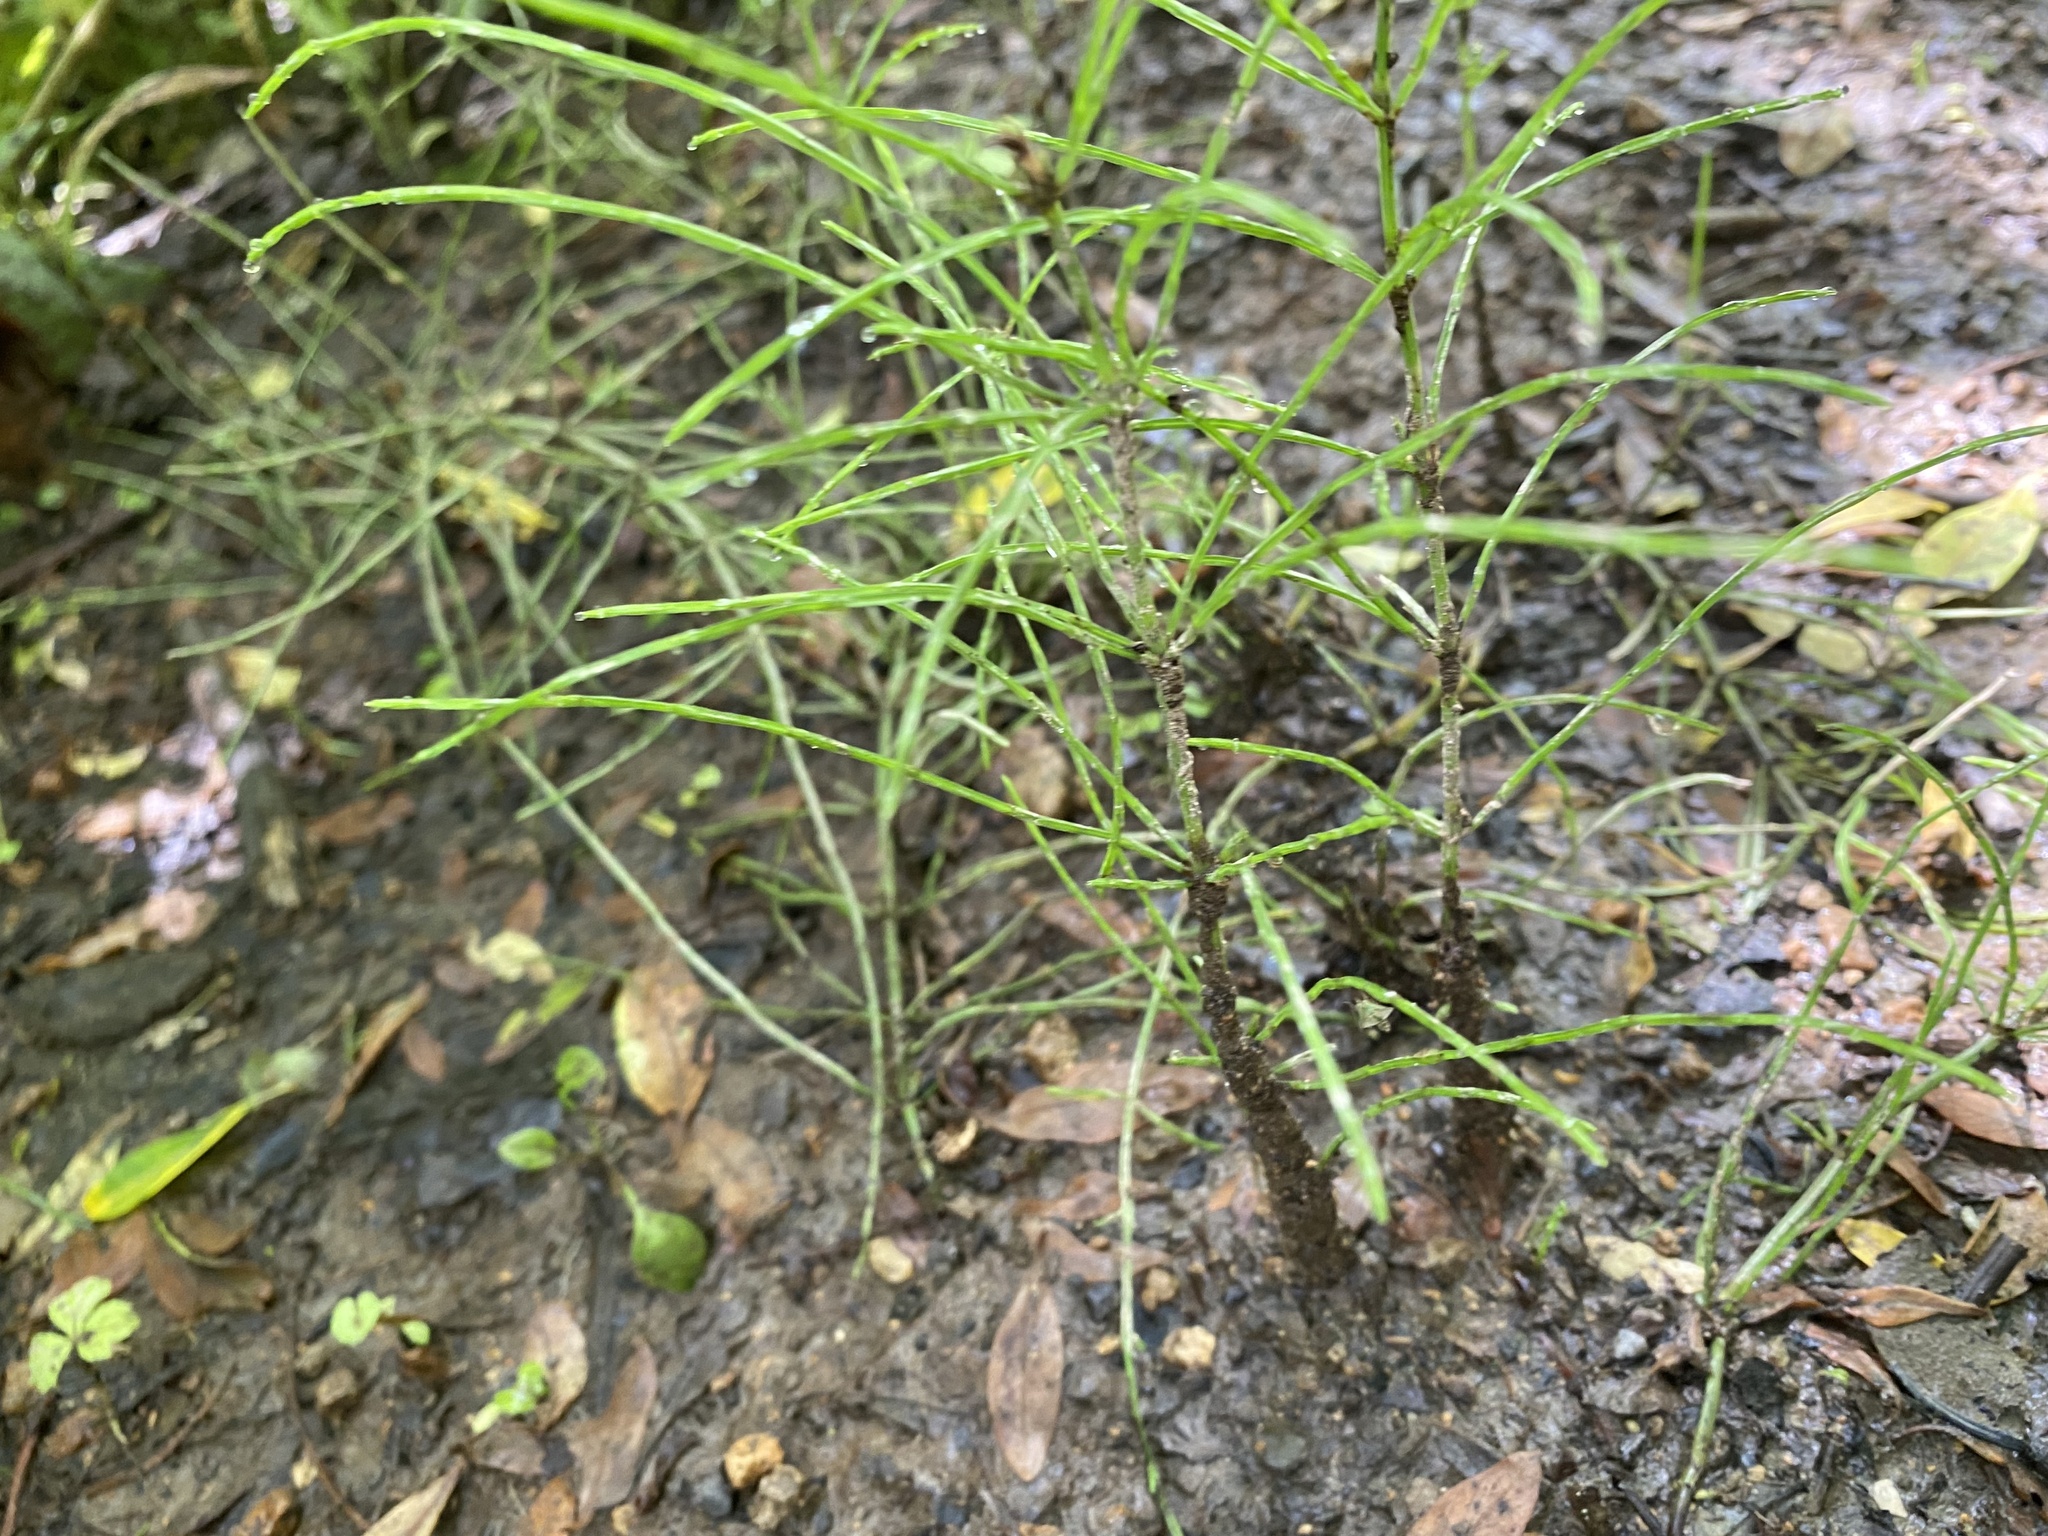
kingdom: Plantae
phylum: Tracheophyta
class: Polypodiopsida
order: Equisetales
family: Equisetaceae
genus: Equisetum
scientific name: Equisetum arvense
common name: Field horsetail
